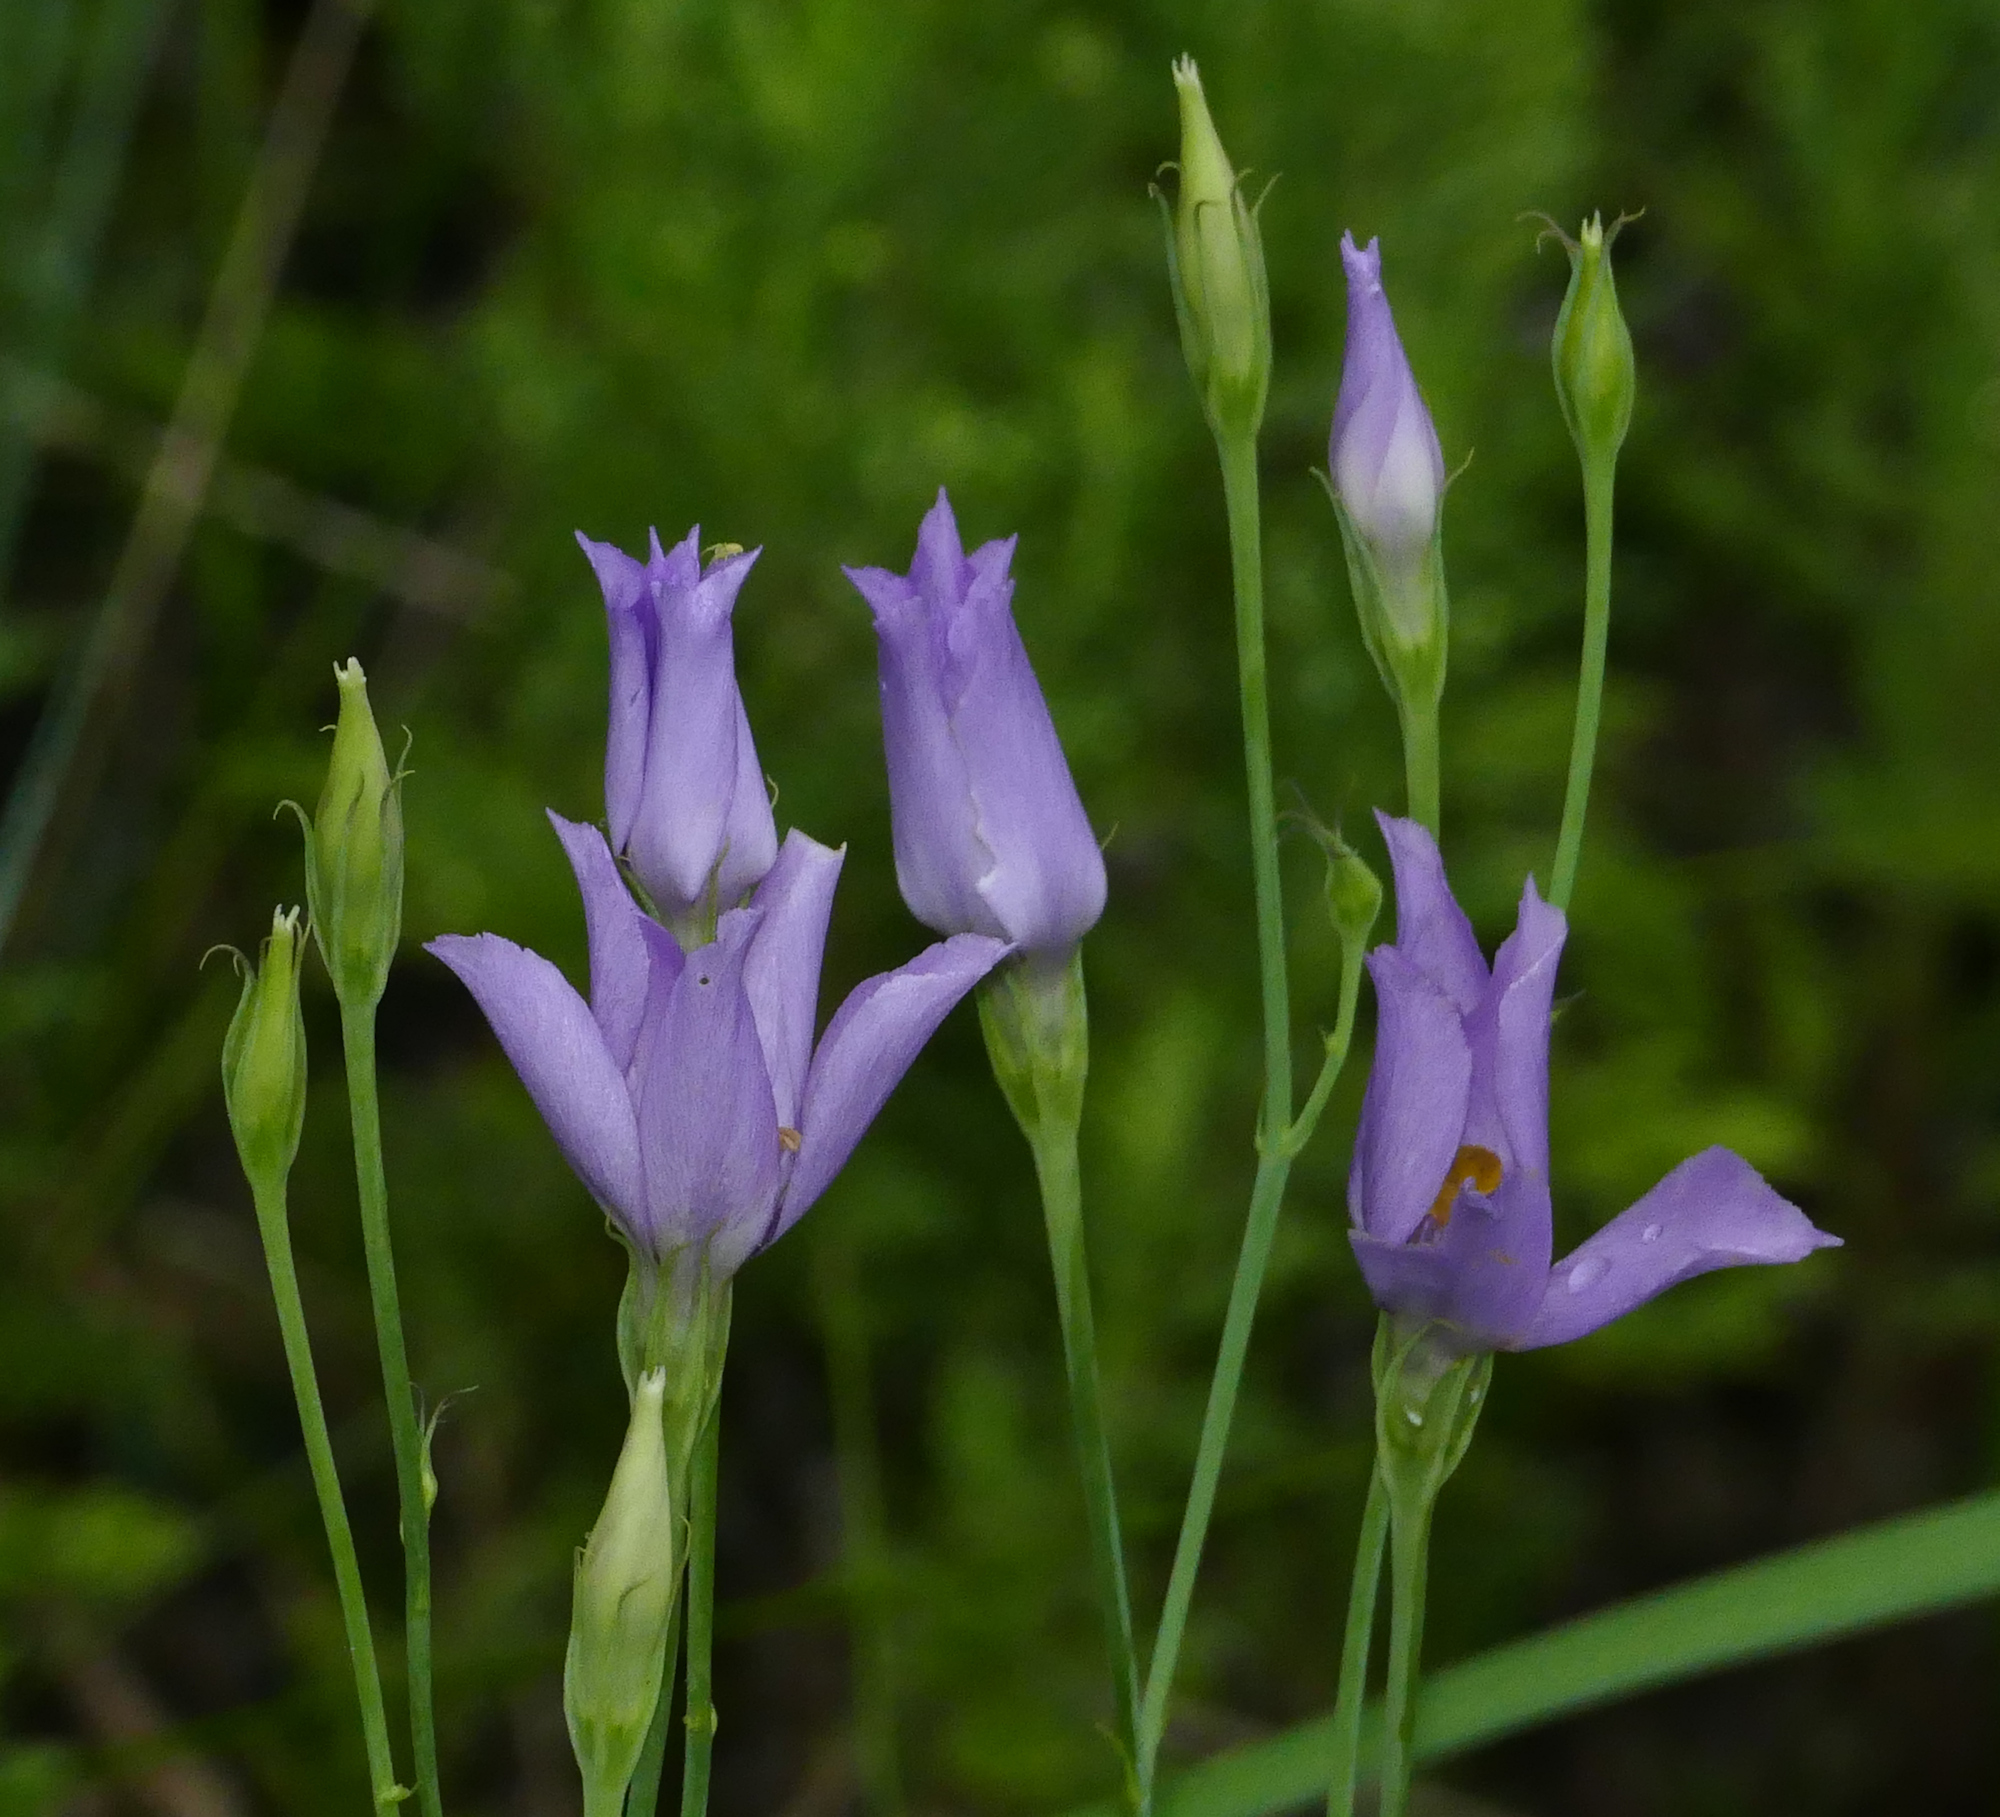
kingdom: Plantae
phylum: Tracheophyta
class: Magnoliopsida
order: Gentianales
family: Gentianaceae
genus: Eustoma
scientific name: Eustoma exaltatum
